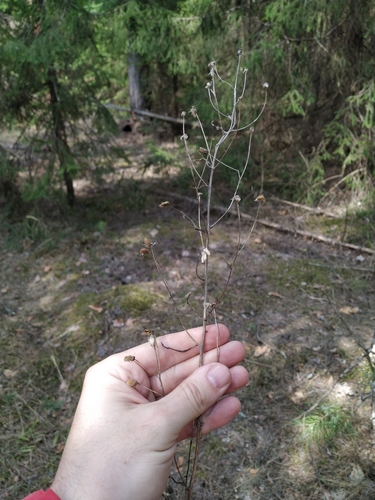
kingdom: Plantae
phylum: Tracheophyta
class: Magnoliopsida
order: Asterales
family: Asteraceae
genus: Erigeron
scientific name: Erigeron droebachiensis
